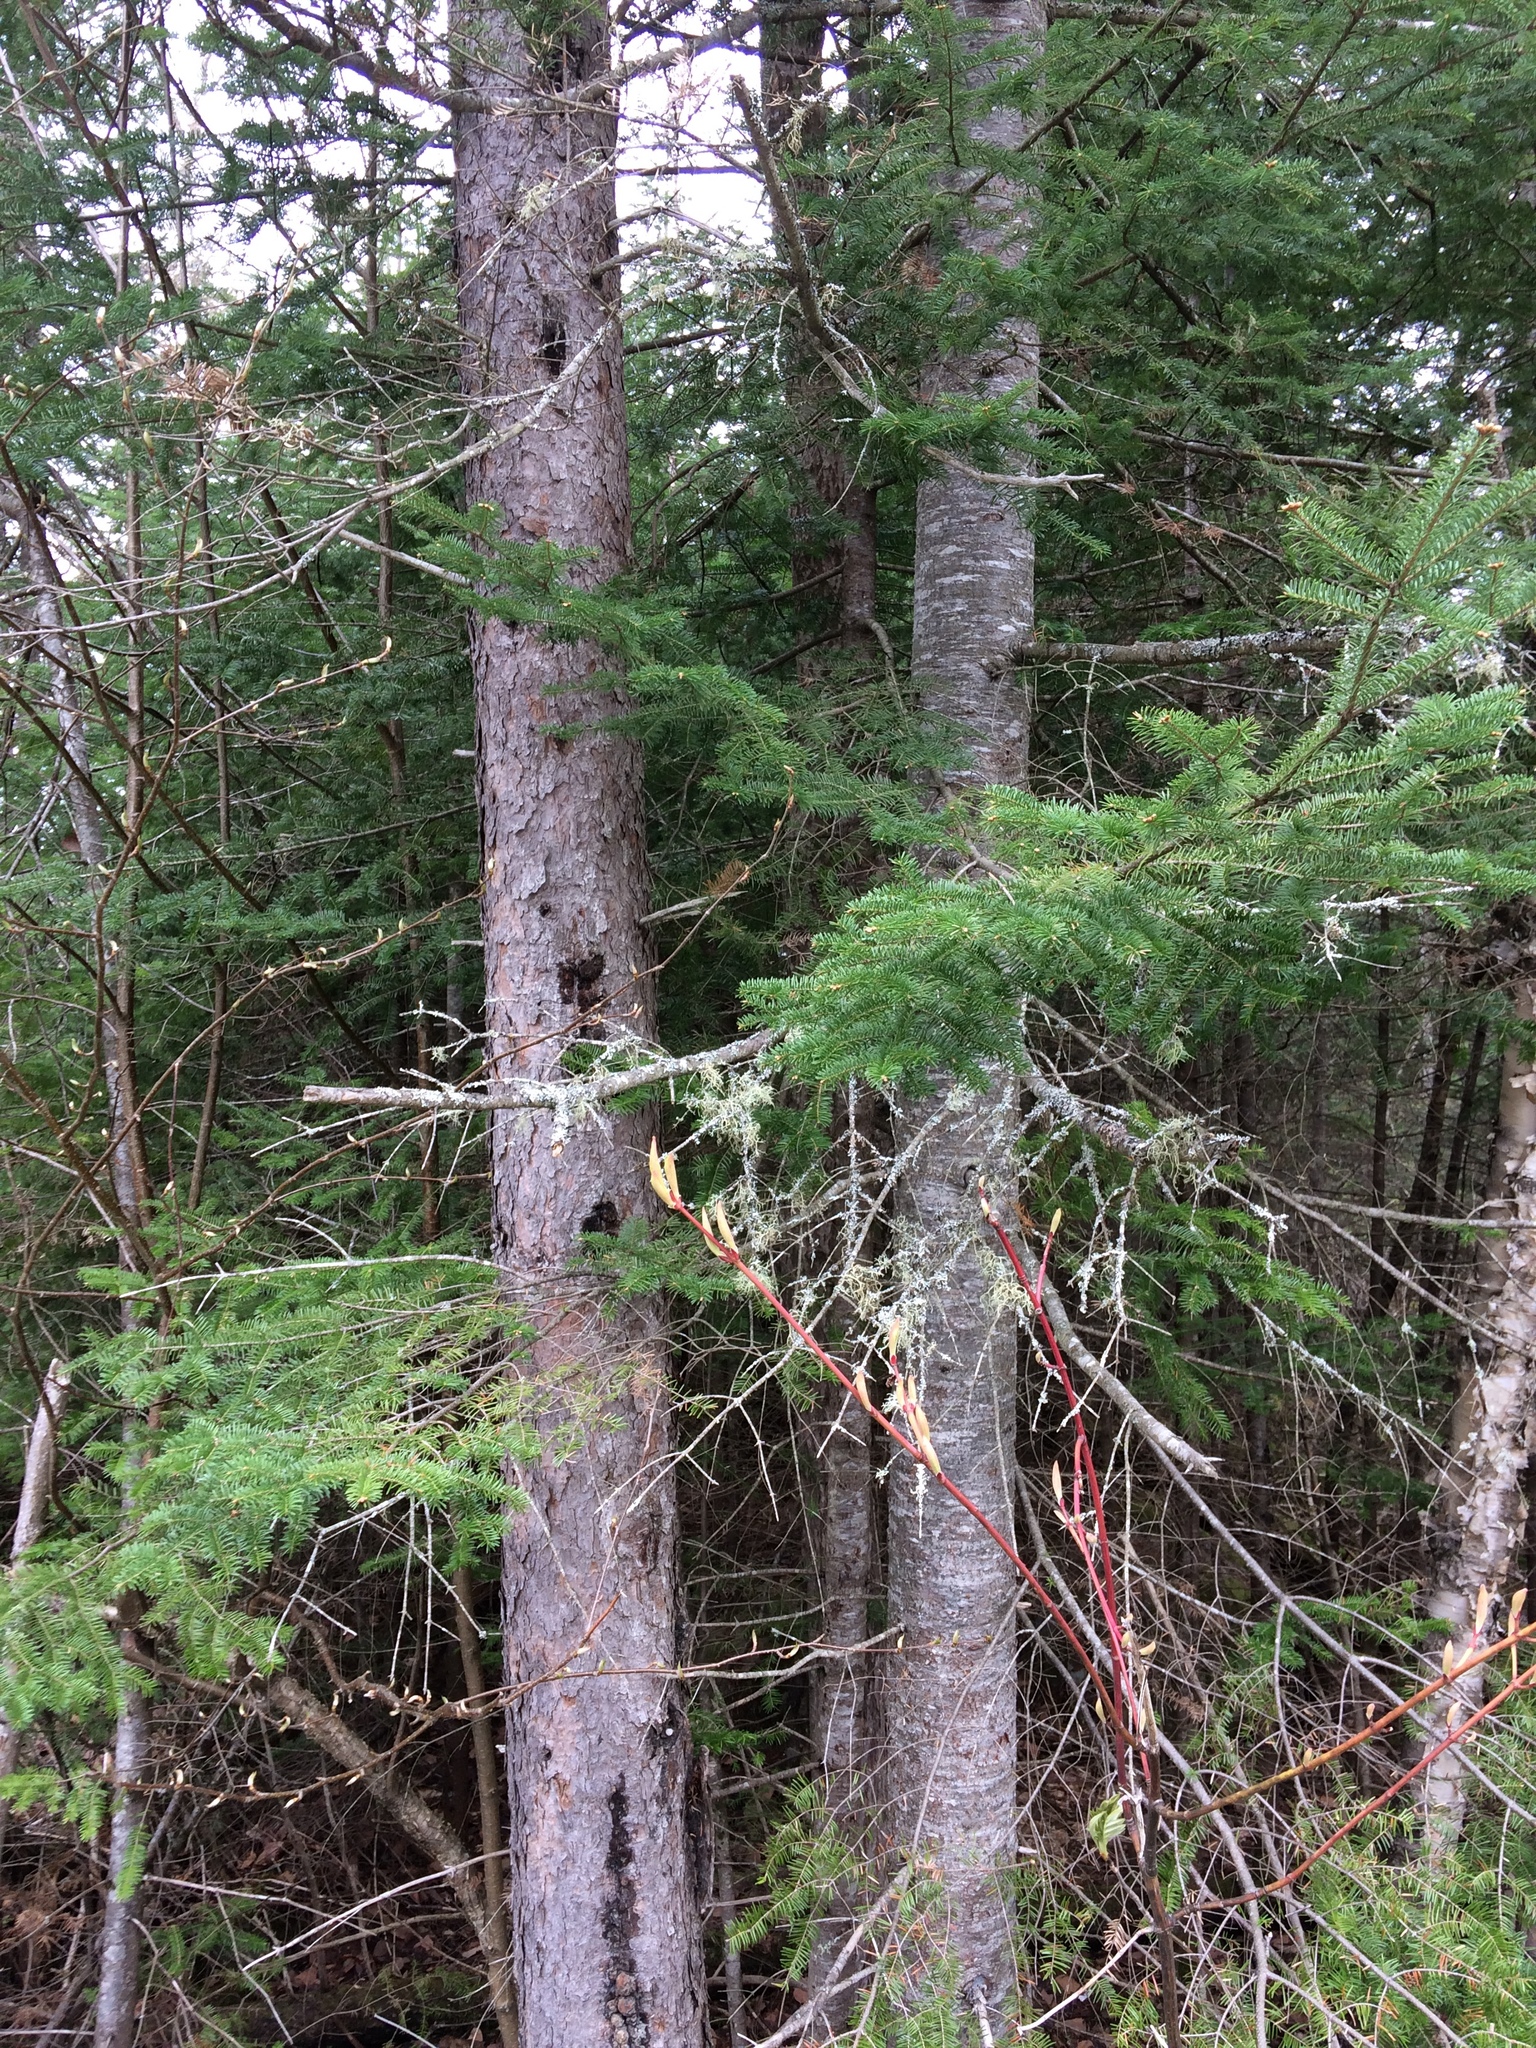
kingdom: Plantae
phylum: Tracheophyta
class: Pinopsida
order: Pinales
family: Pinaceae
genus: Abies
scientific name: Abies balsamea
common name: Balsam fir
